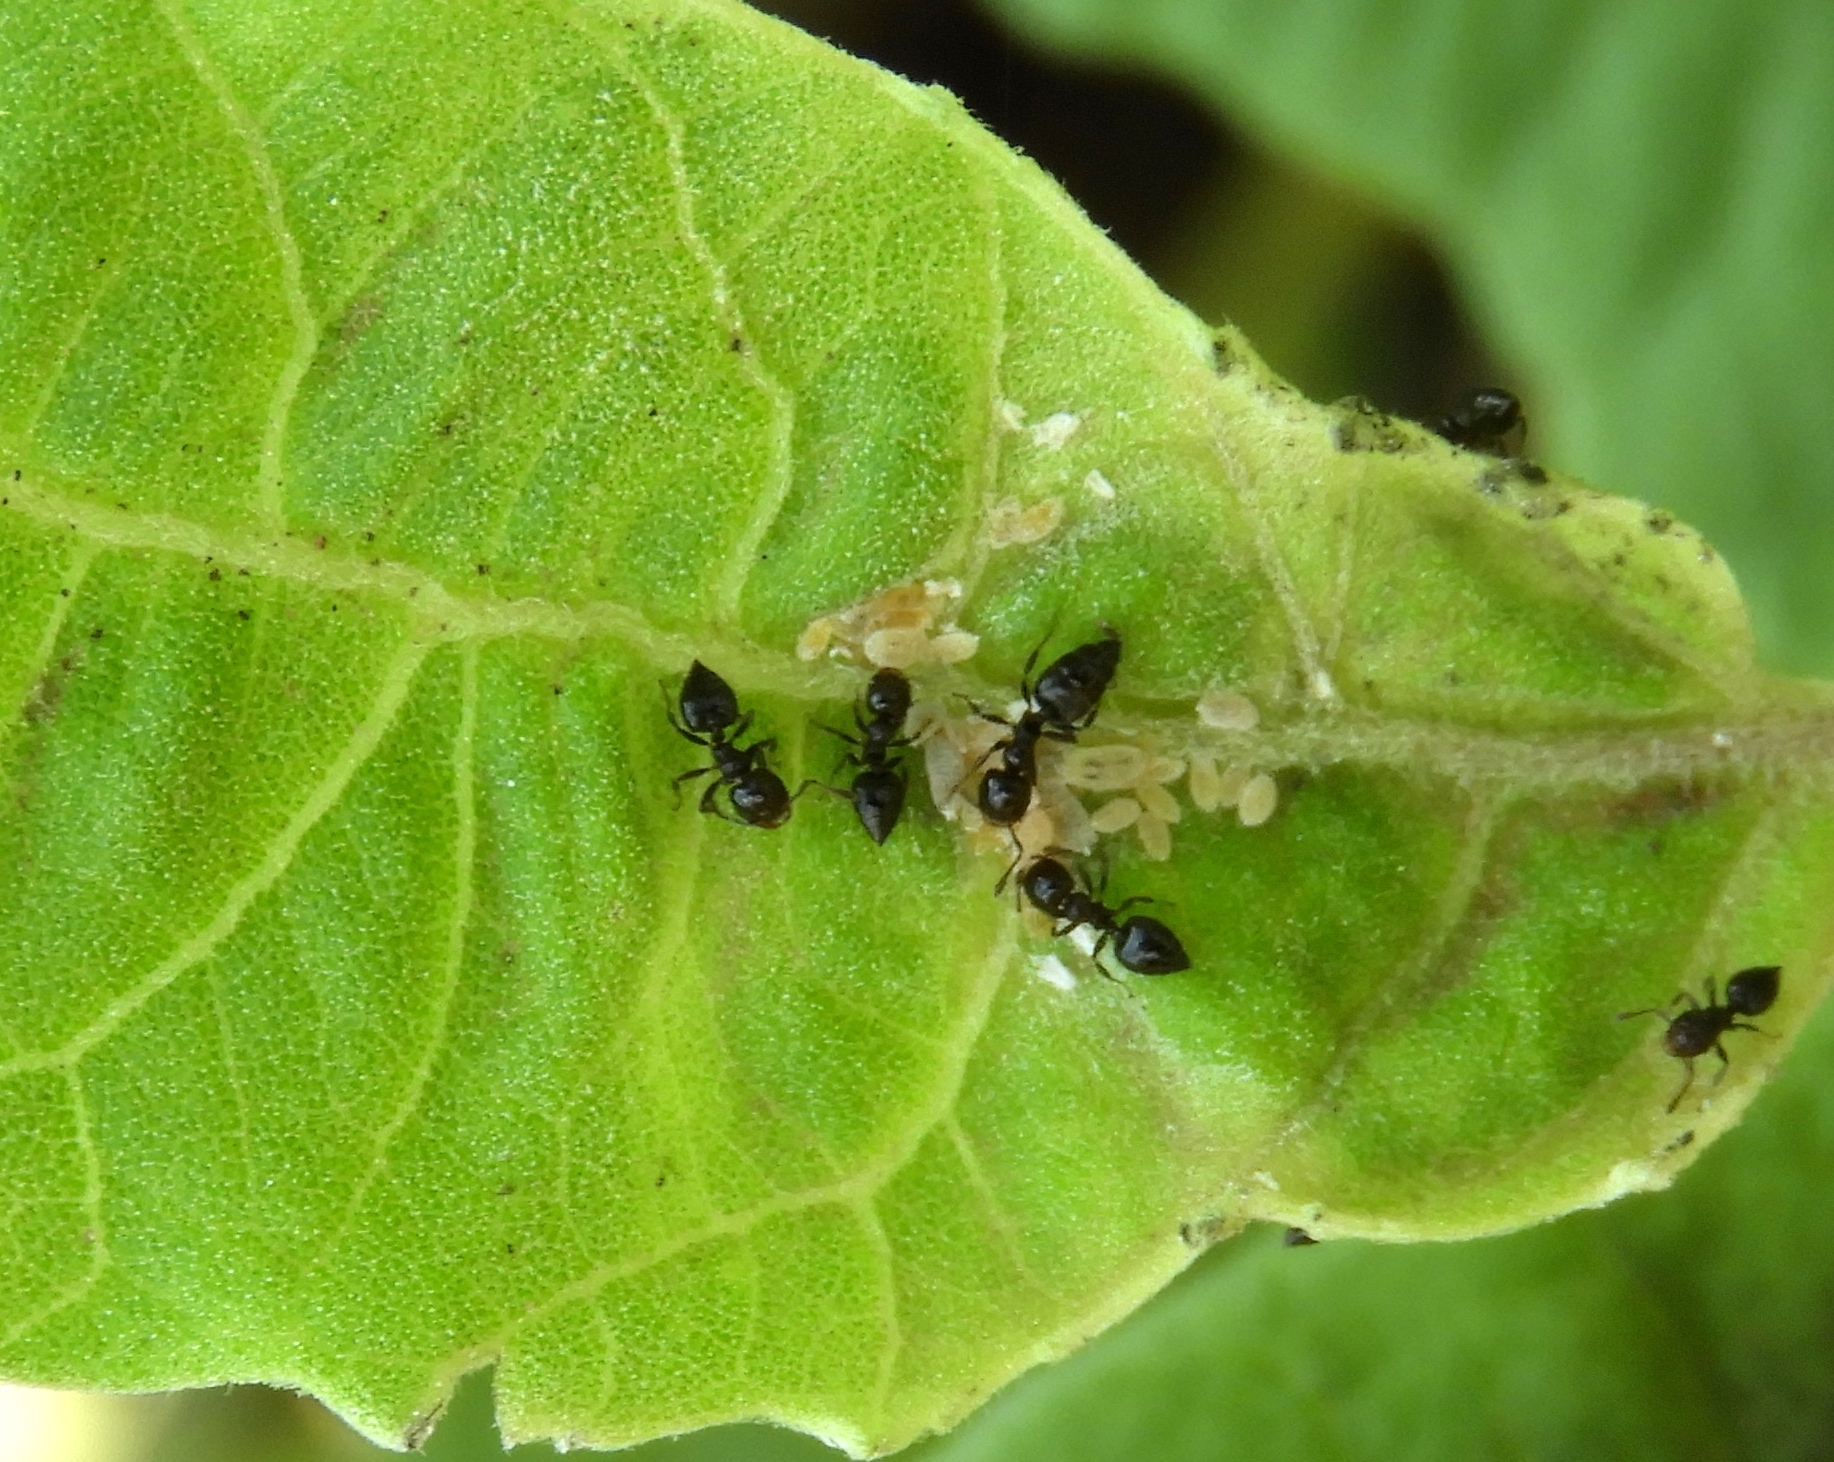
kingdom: Animalia
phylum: Arthropoda
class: Insecta
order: Hymenoptera
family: Formicidae
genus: Crematogaster
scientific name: Crematogaster
